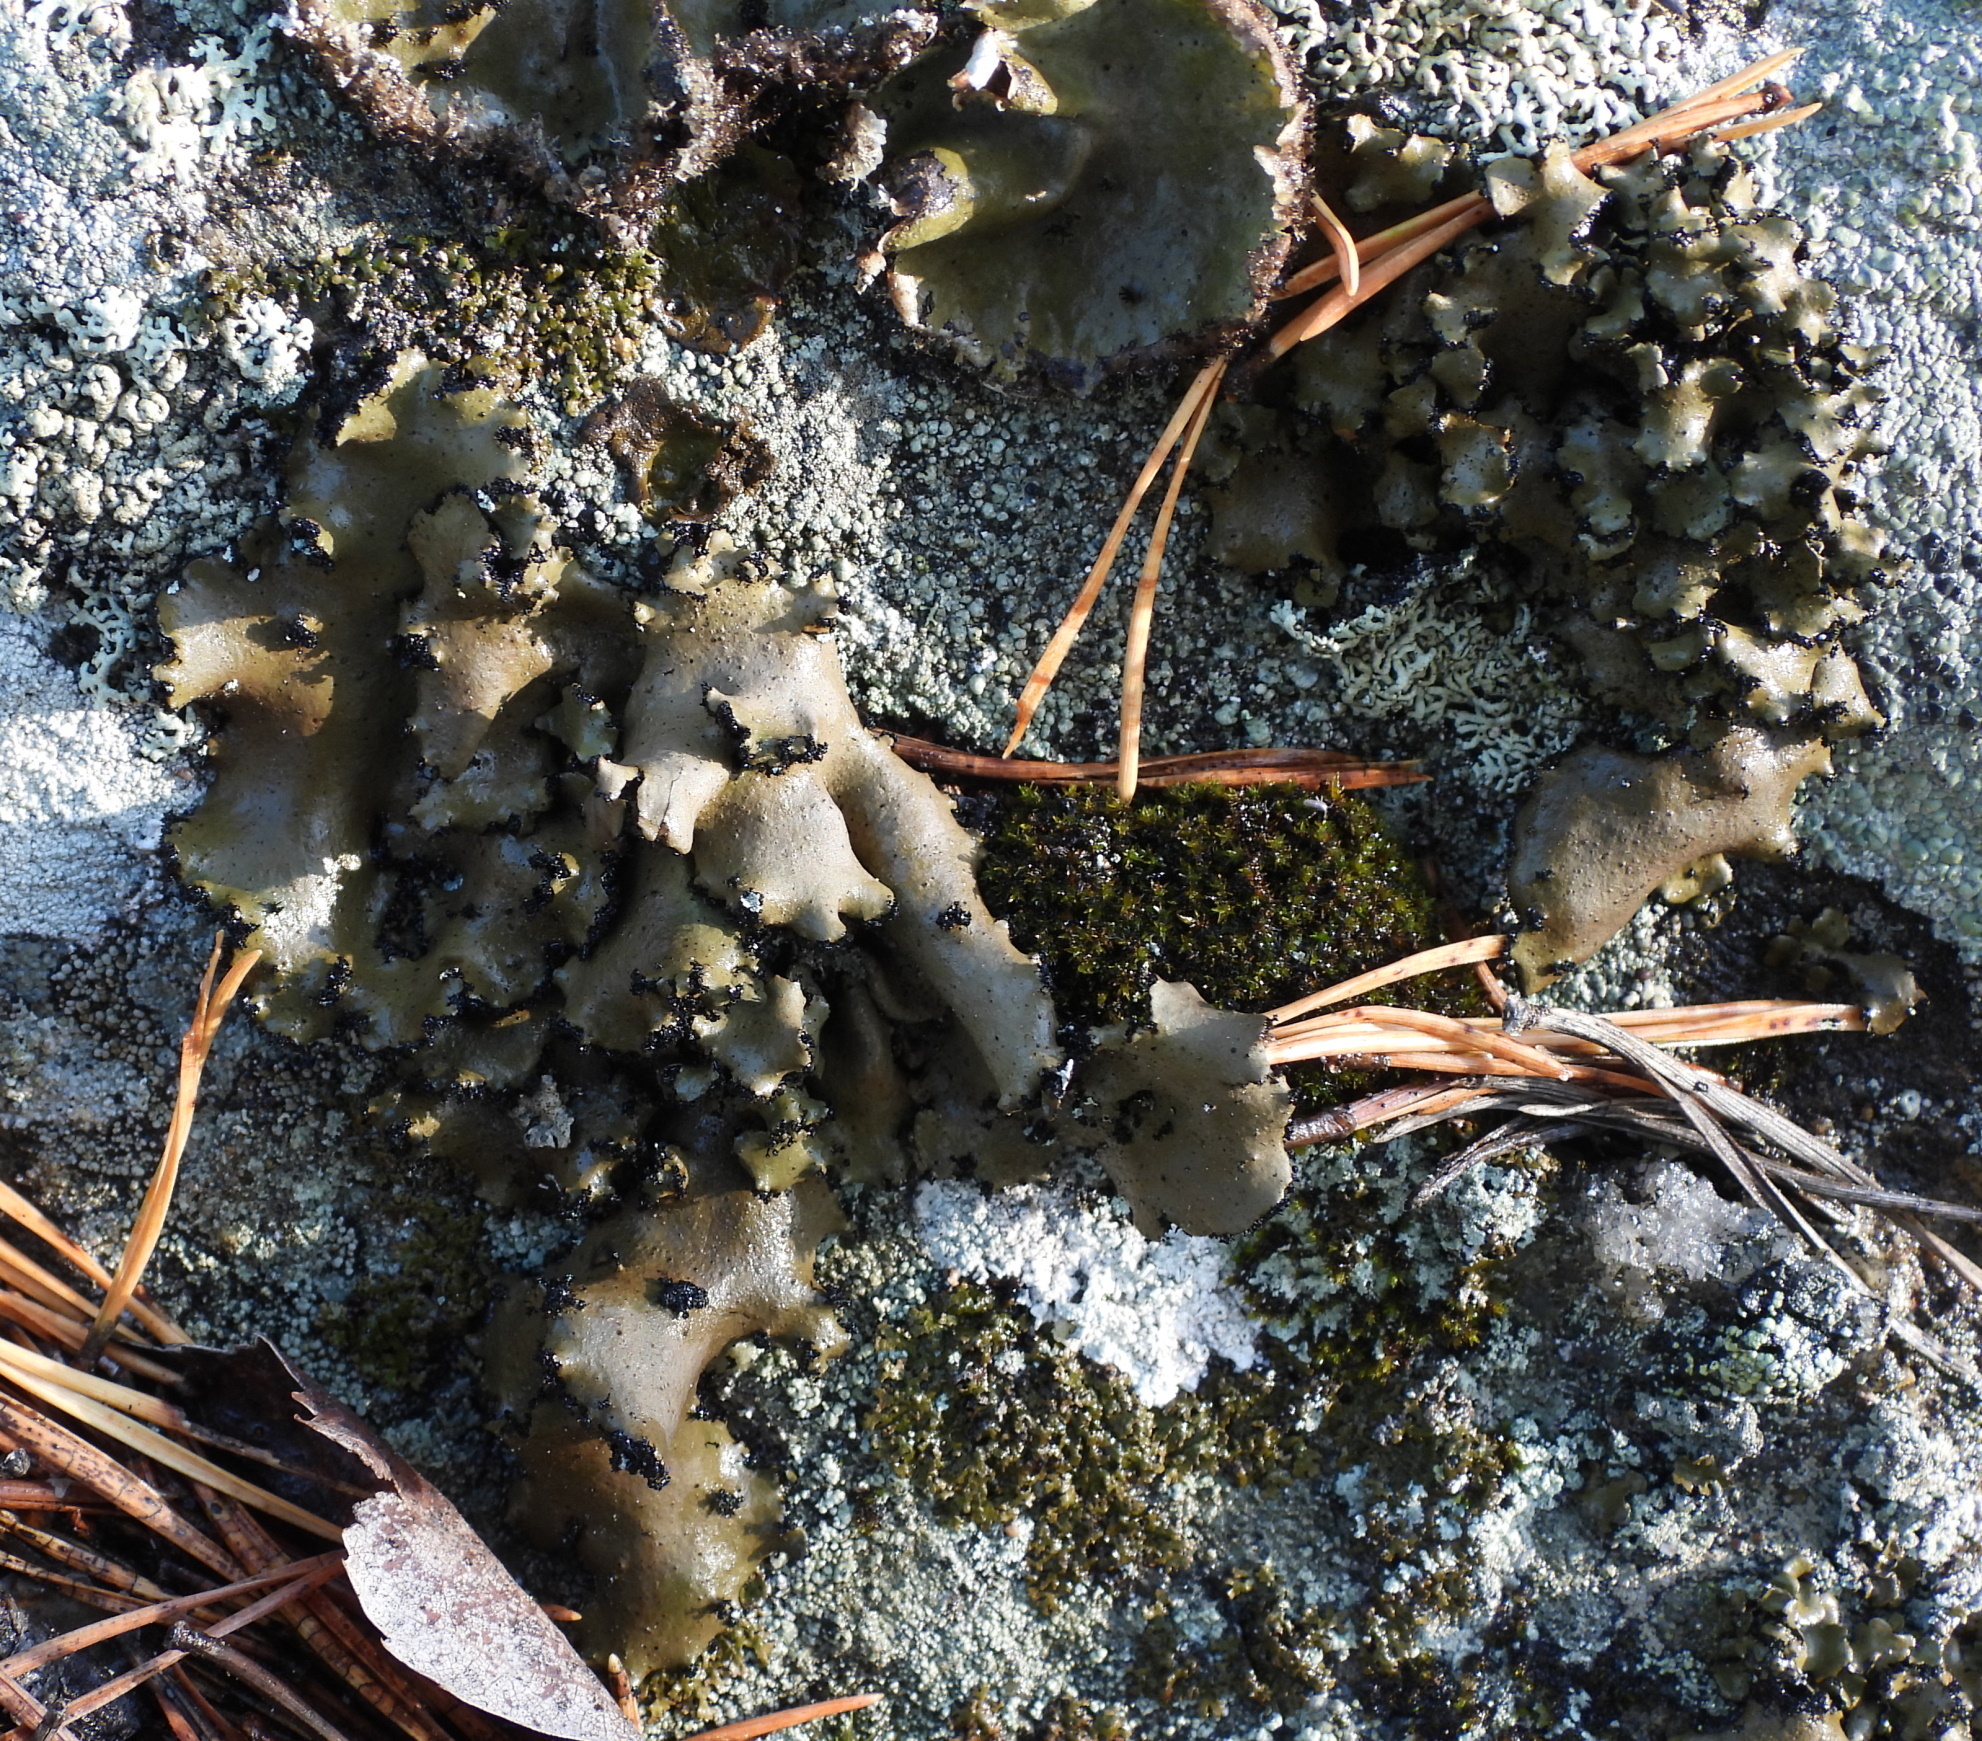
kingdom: Fungi
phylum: Ascomycota
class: Lecanoromycetes
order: Umbilicariales
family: Umbilicariaceae
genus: Umbilicaria
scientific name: Umbilicaria polyrrhiza
